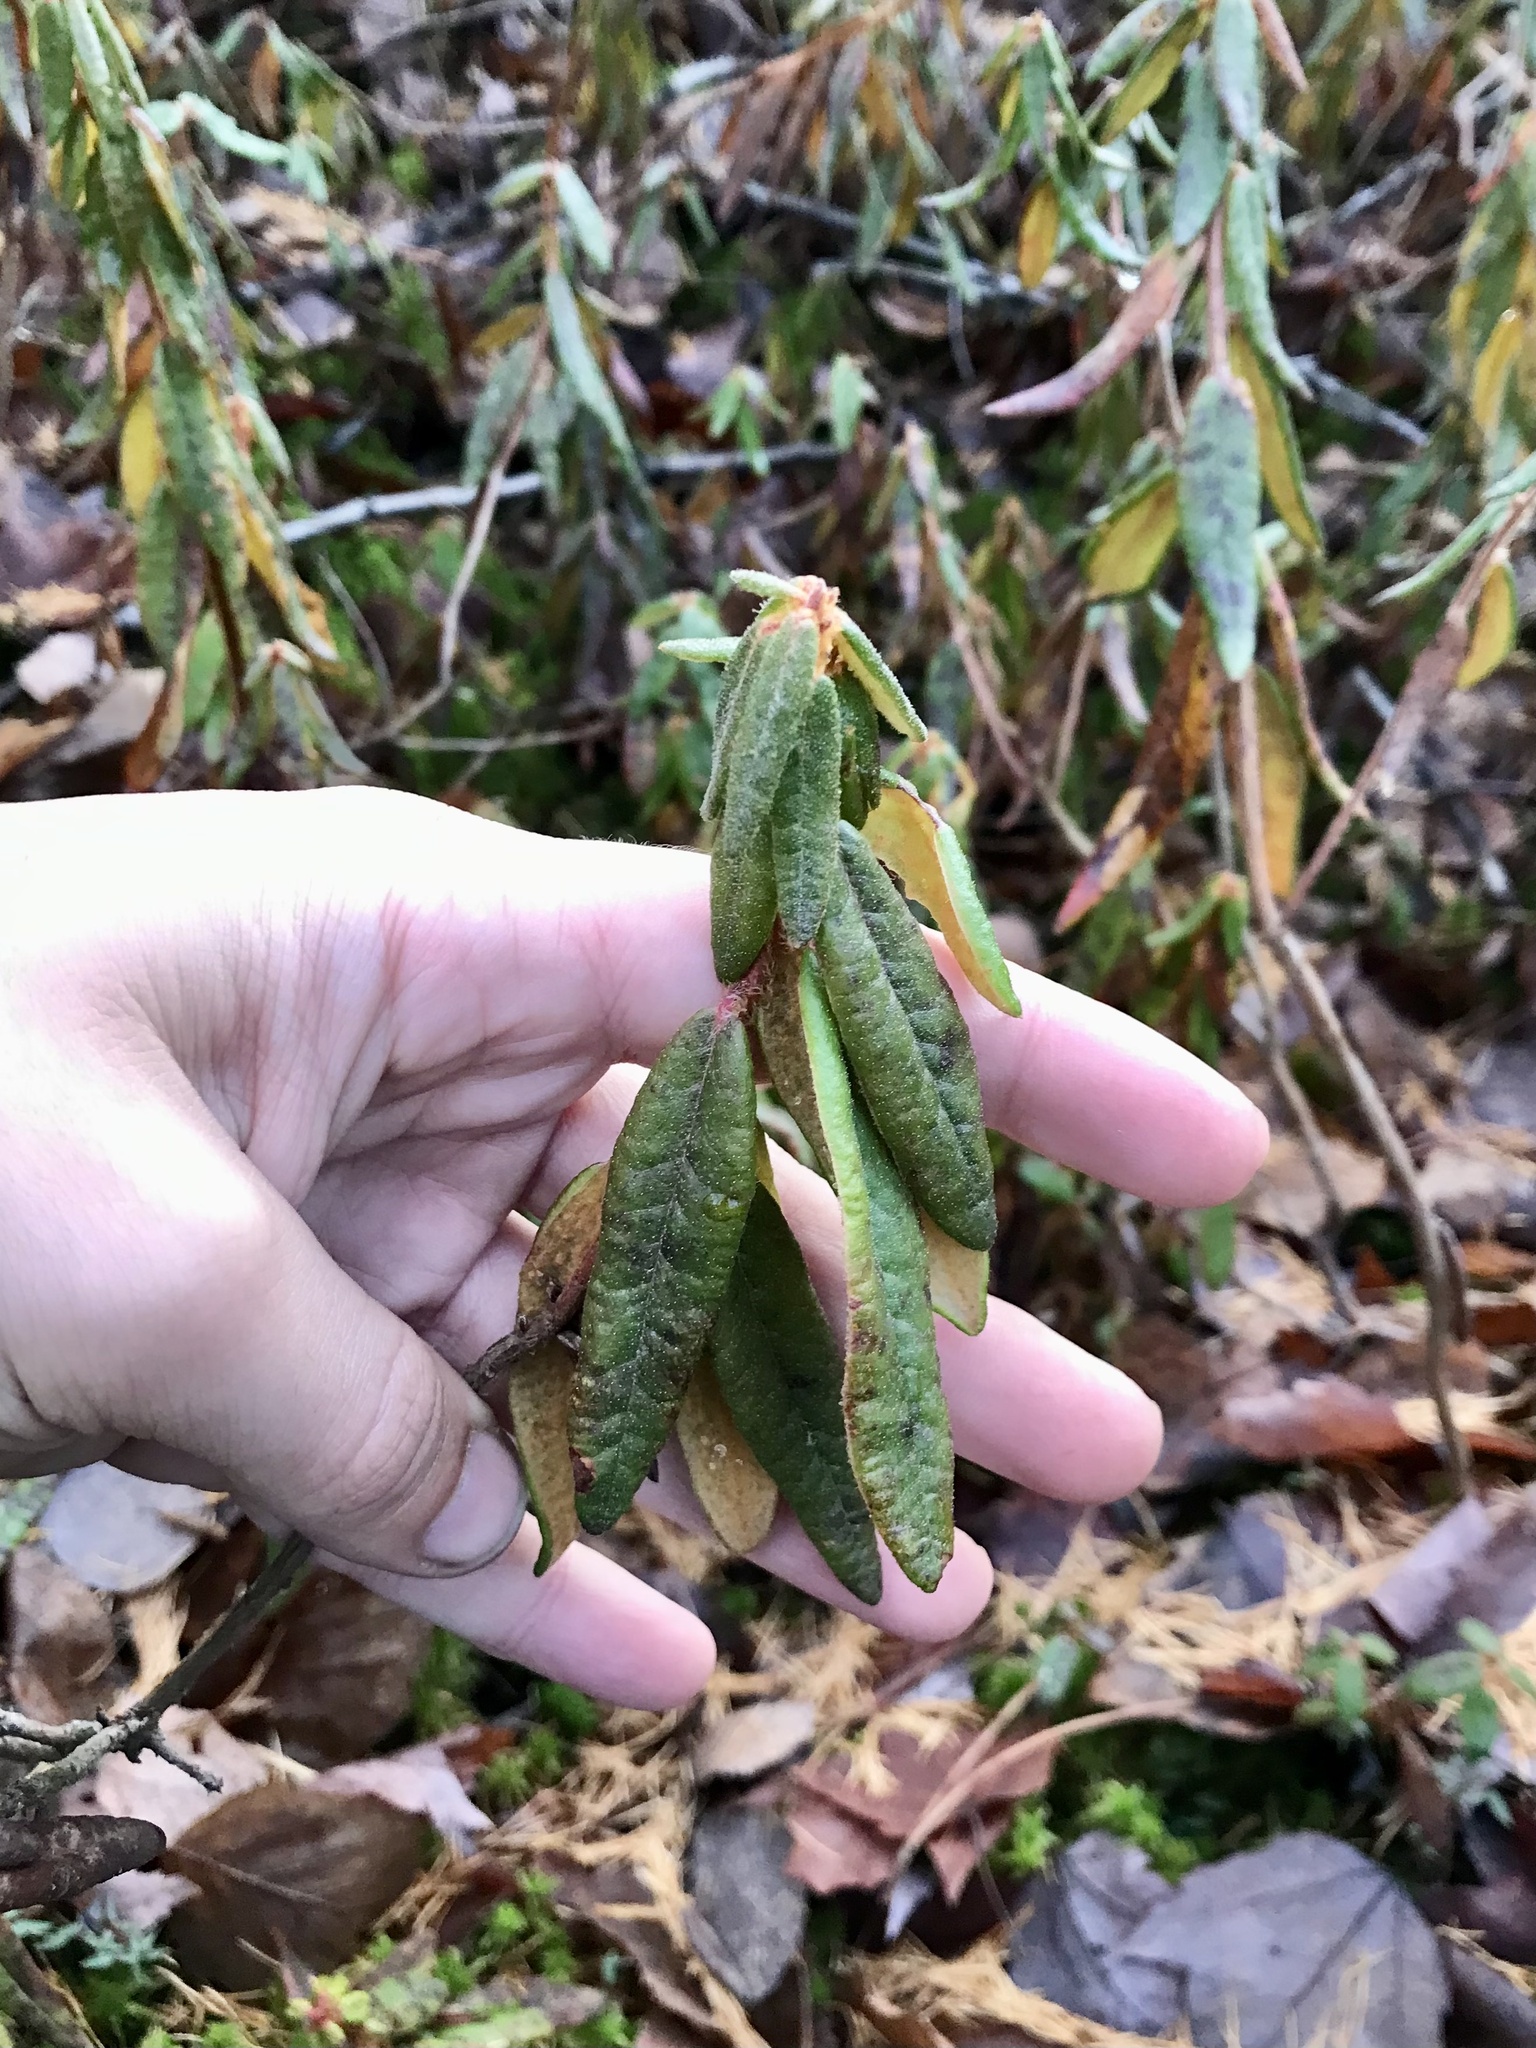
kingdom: Plantae
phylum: Tracheophyta
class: Magnoliopsida
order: Ericales
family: Ericaceae
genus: Rhododendron
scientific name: Rhododendron groenlandicum
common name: Bog labrador tea
